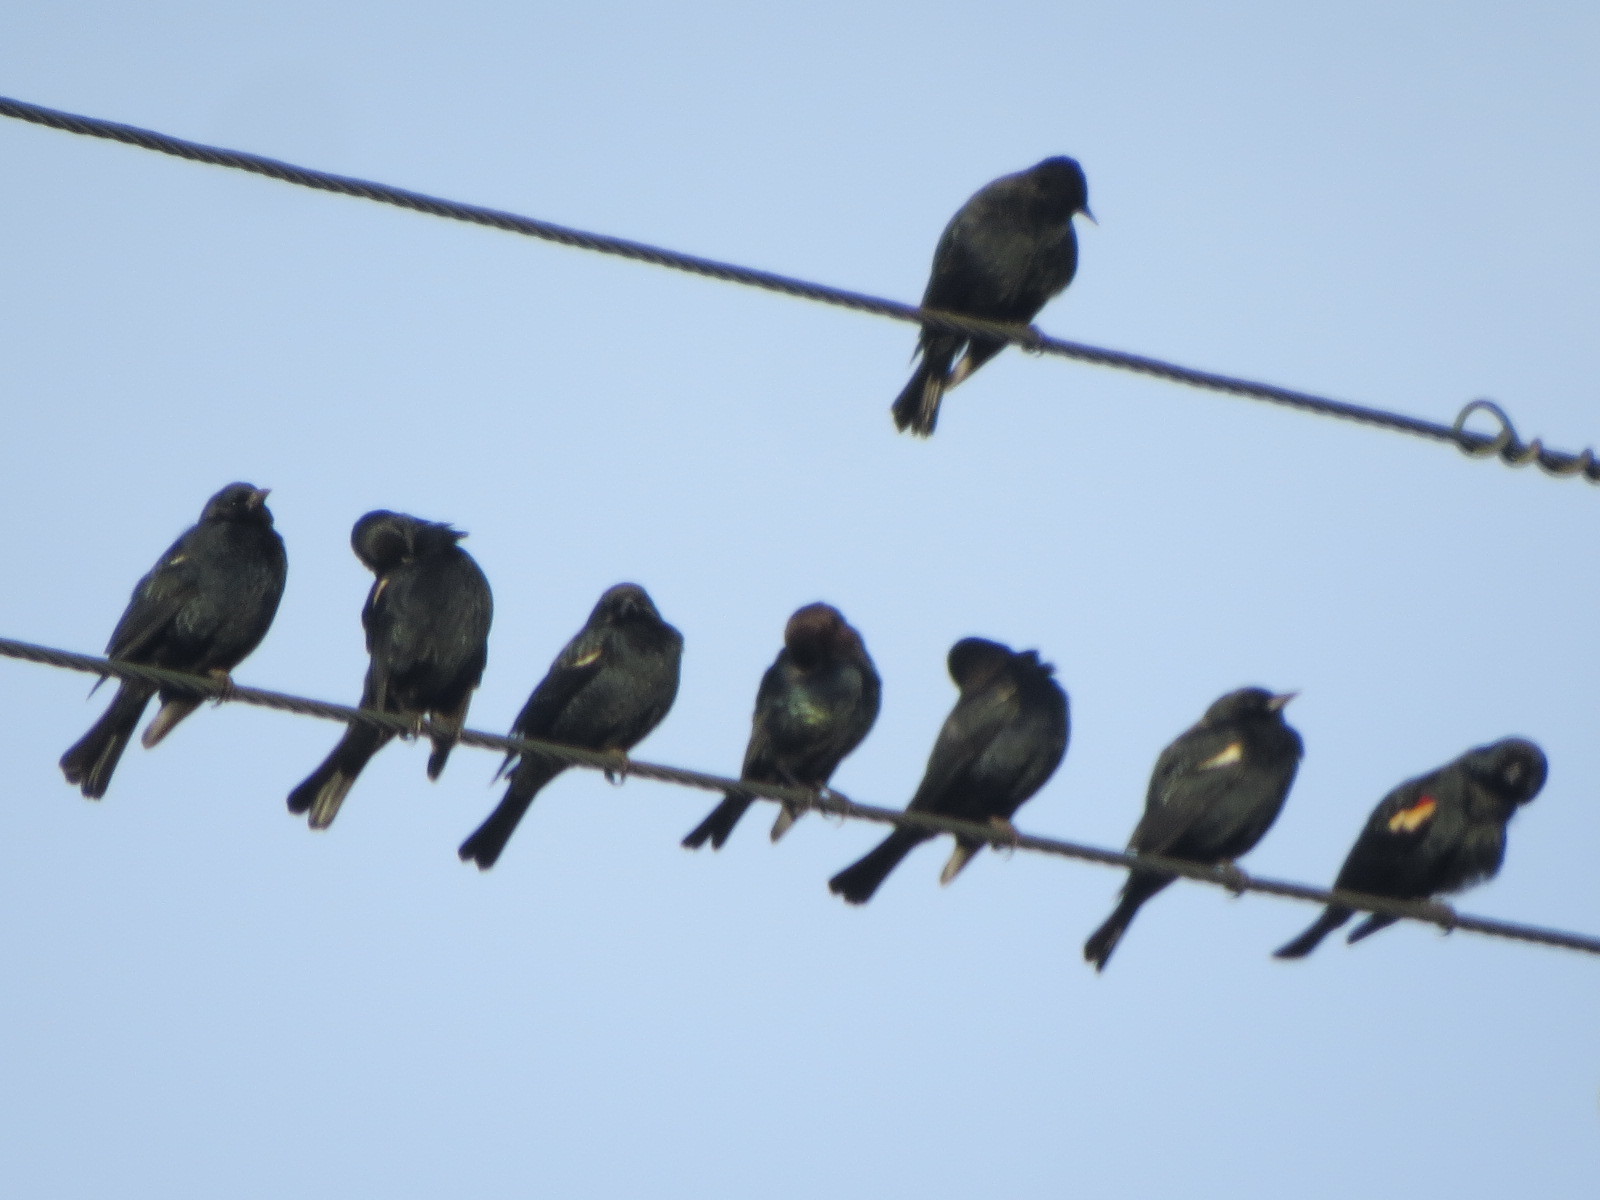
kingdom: Animalia
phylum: Chordata
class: Aves
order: Passeriformes
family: Icteridae
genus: Agelaius
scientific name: Agelaius tricolor
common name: Tricolored blackbird
